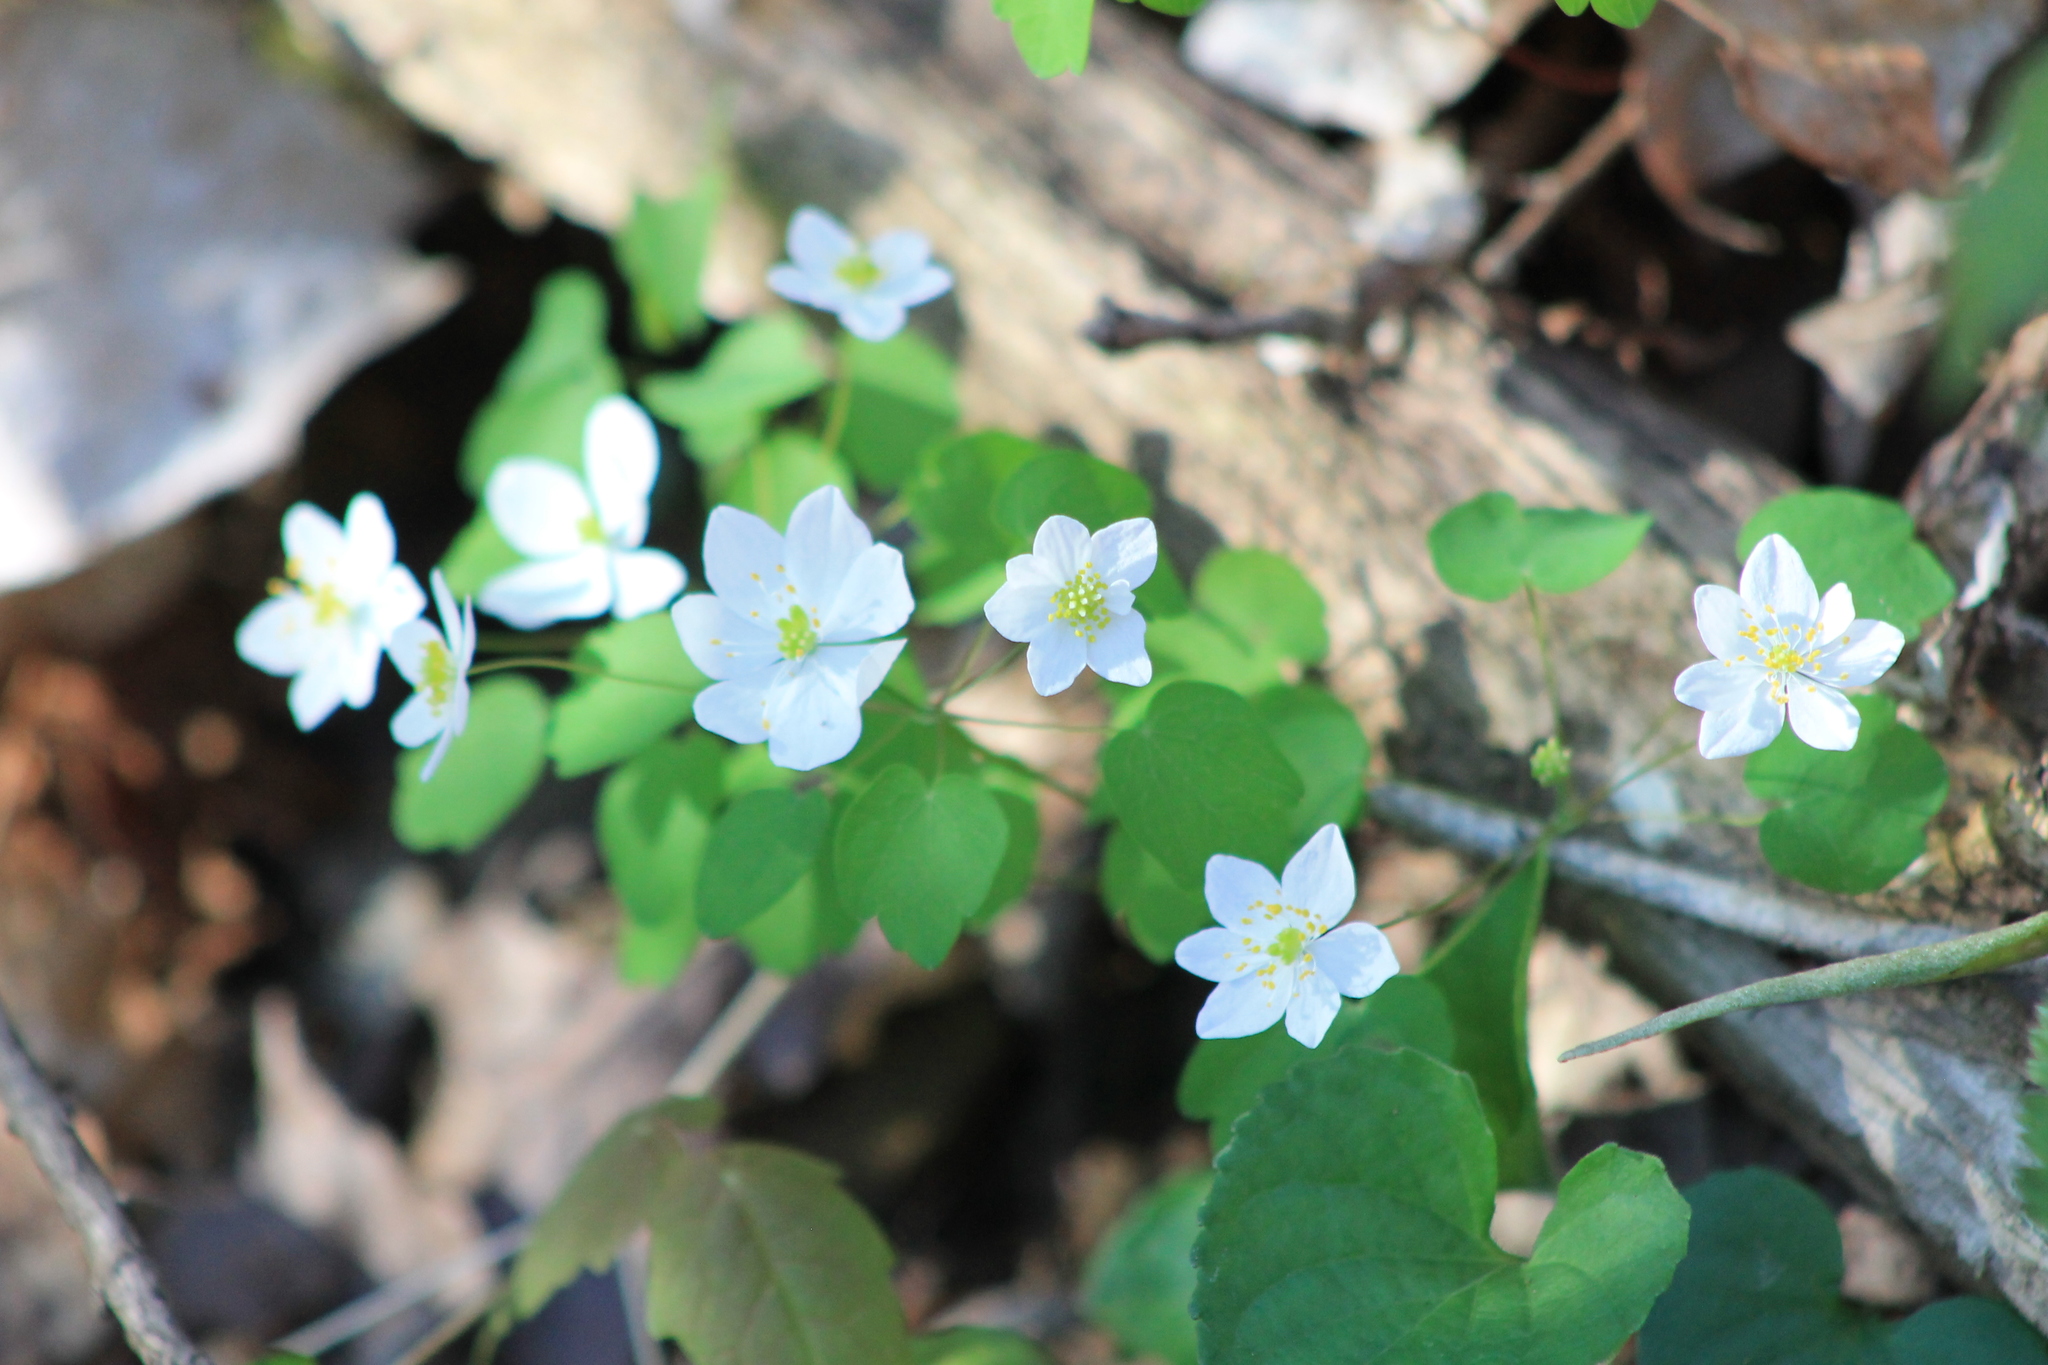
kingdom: Plantae
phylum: Tracheophyta
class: Magnoliopsida
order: Ranunculales
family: Ranunculaceae
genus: Thalictrum
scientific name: Thalictrum thalictroides
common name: Rue-anemone
